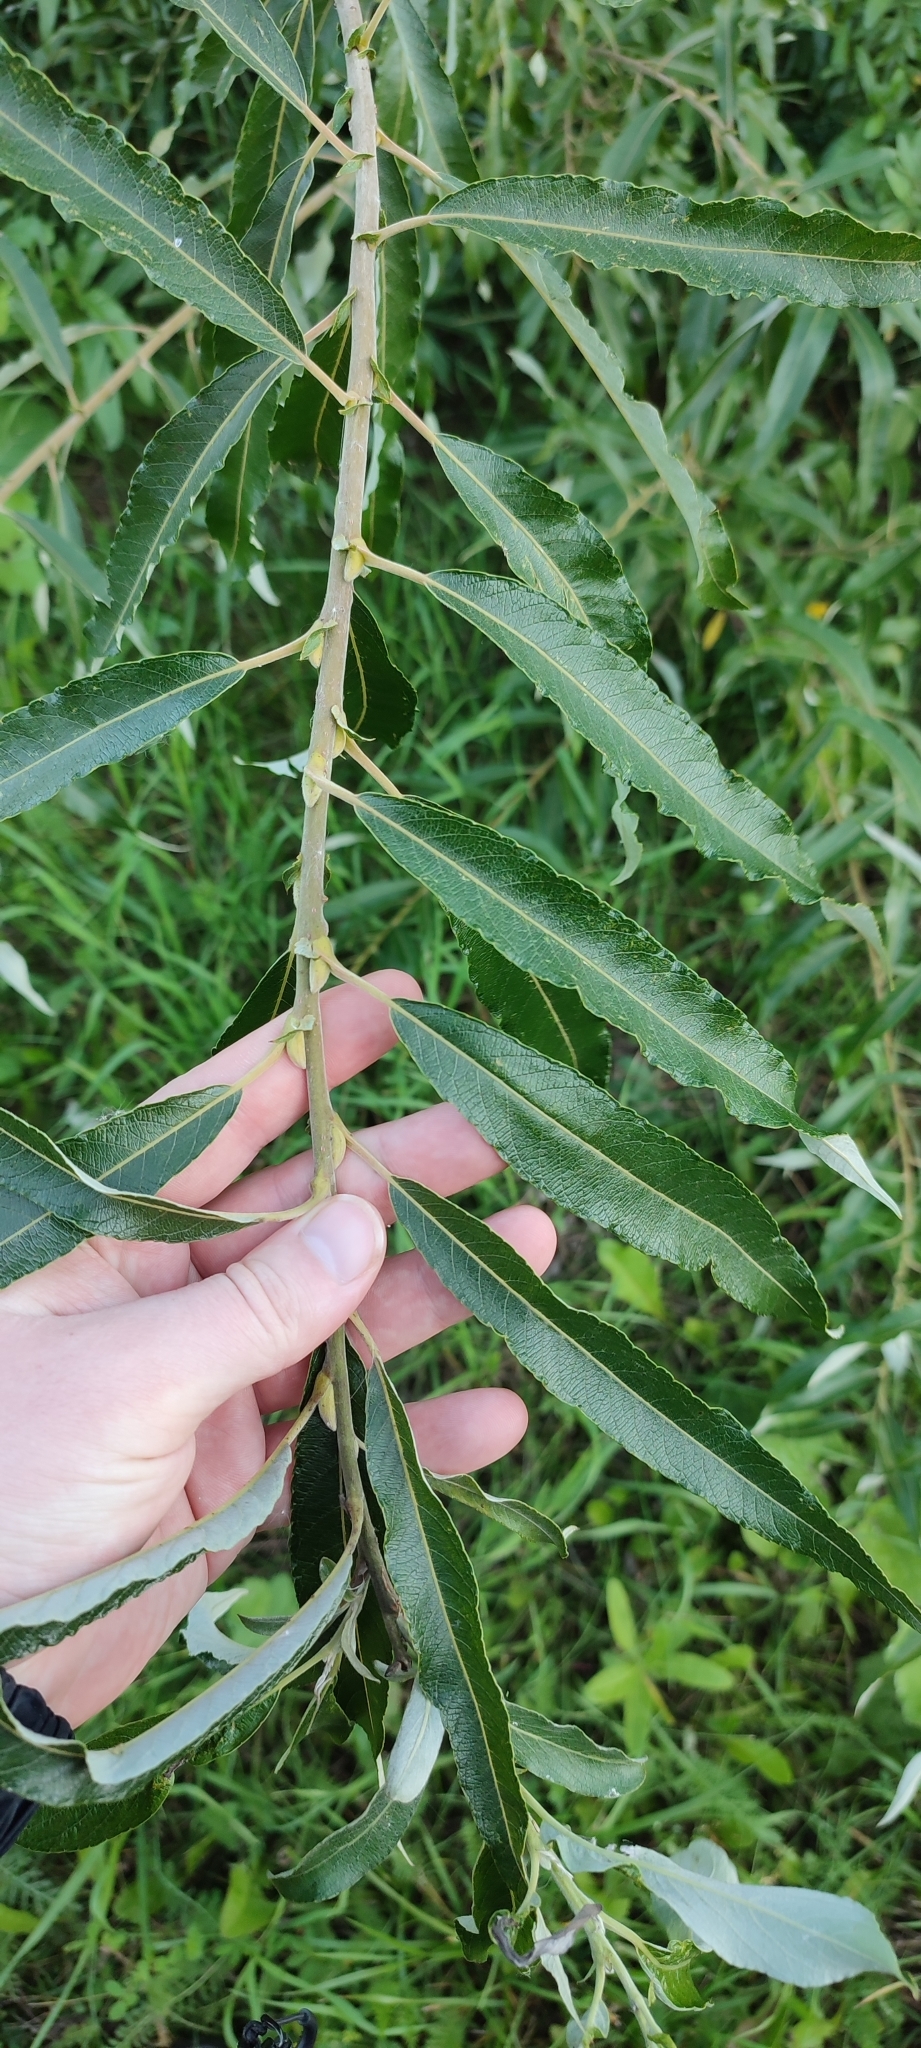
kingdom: Plantae
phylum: Tracheophyta
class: Magnoliopsida
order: Malpighiales
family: Salicaceae
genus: Salix
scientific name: Salix gmelinii
